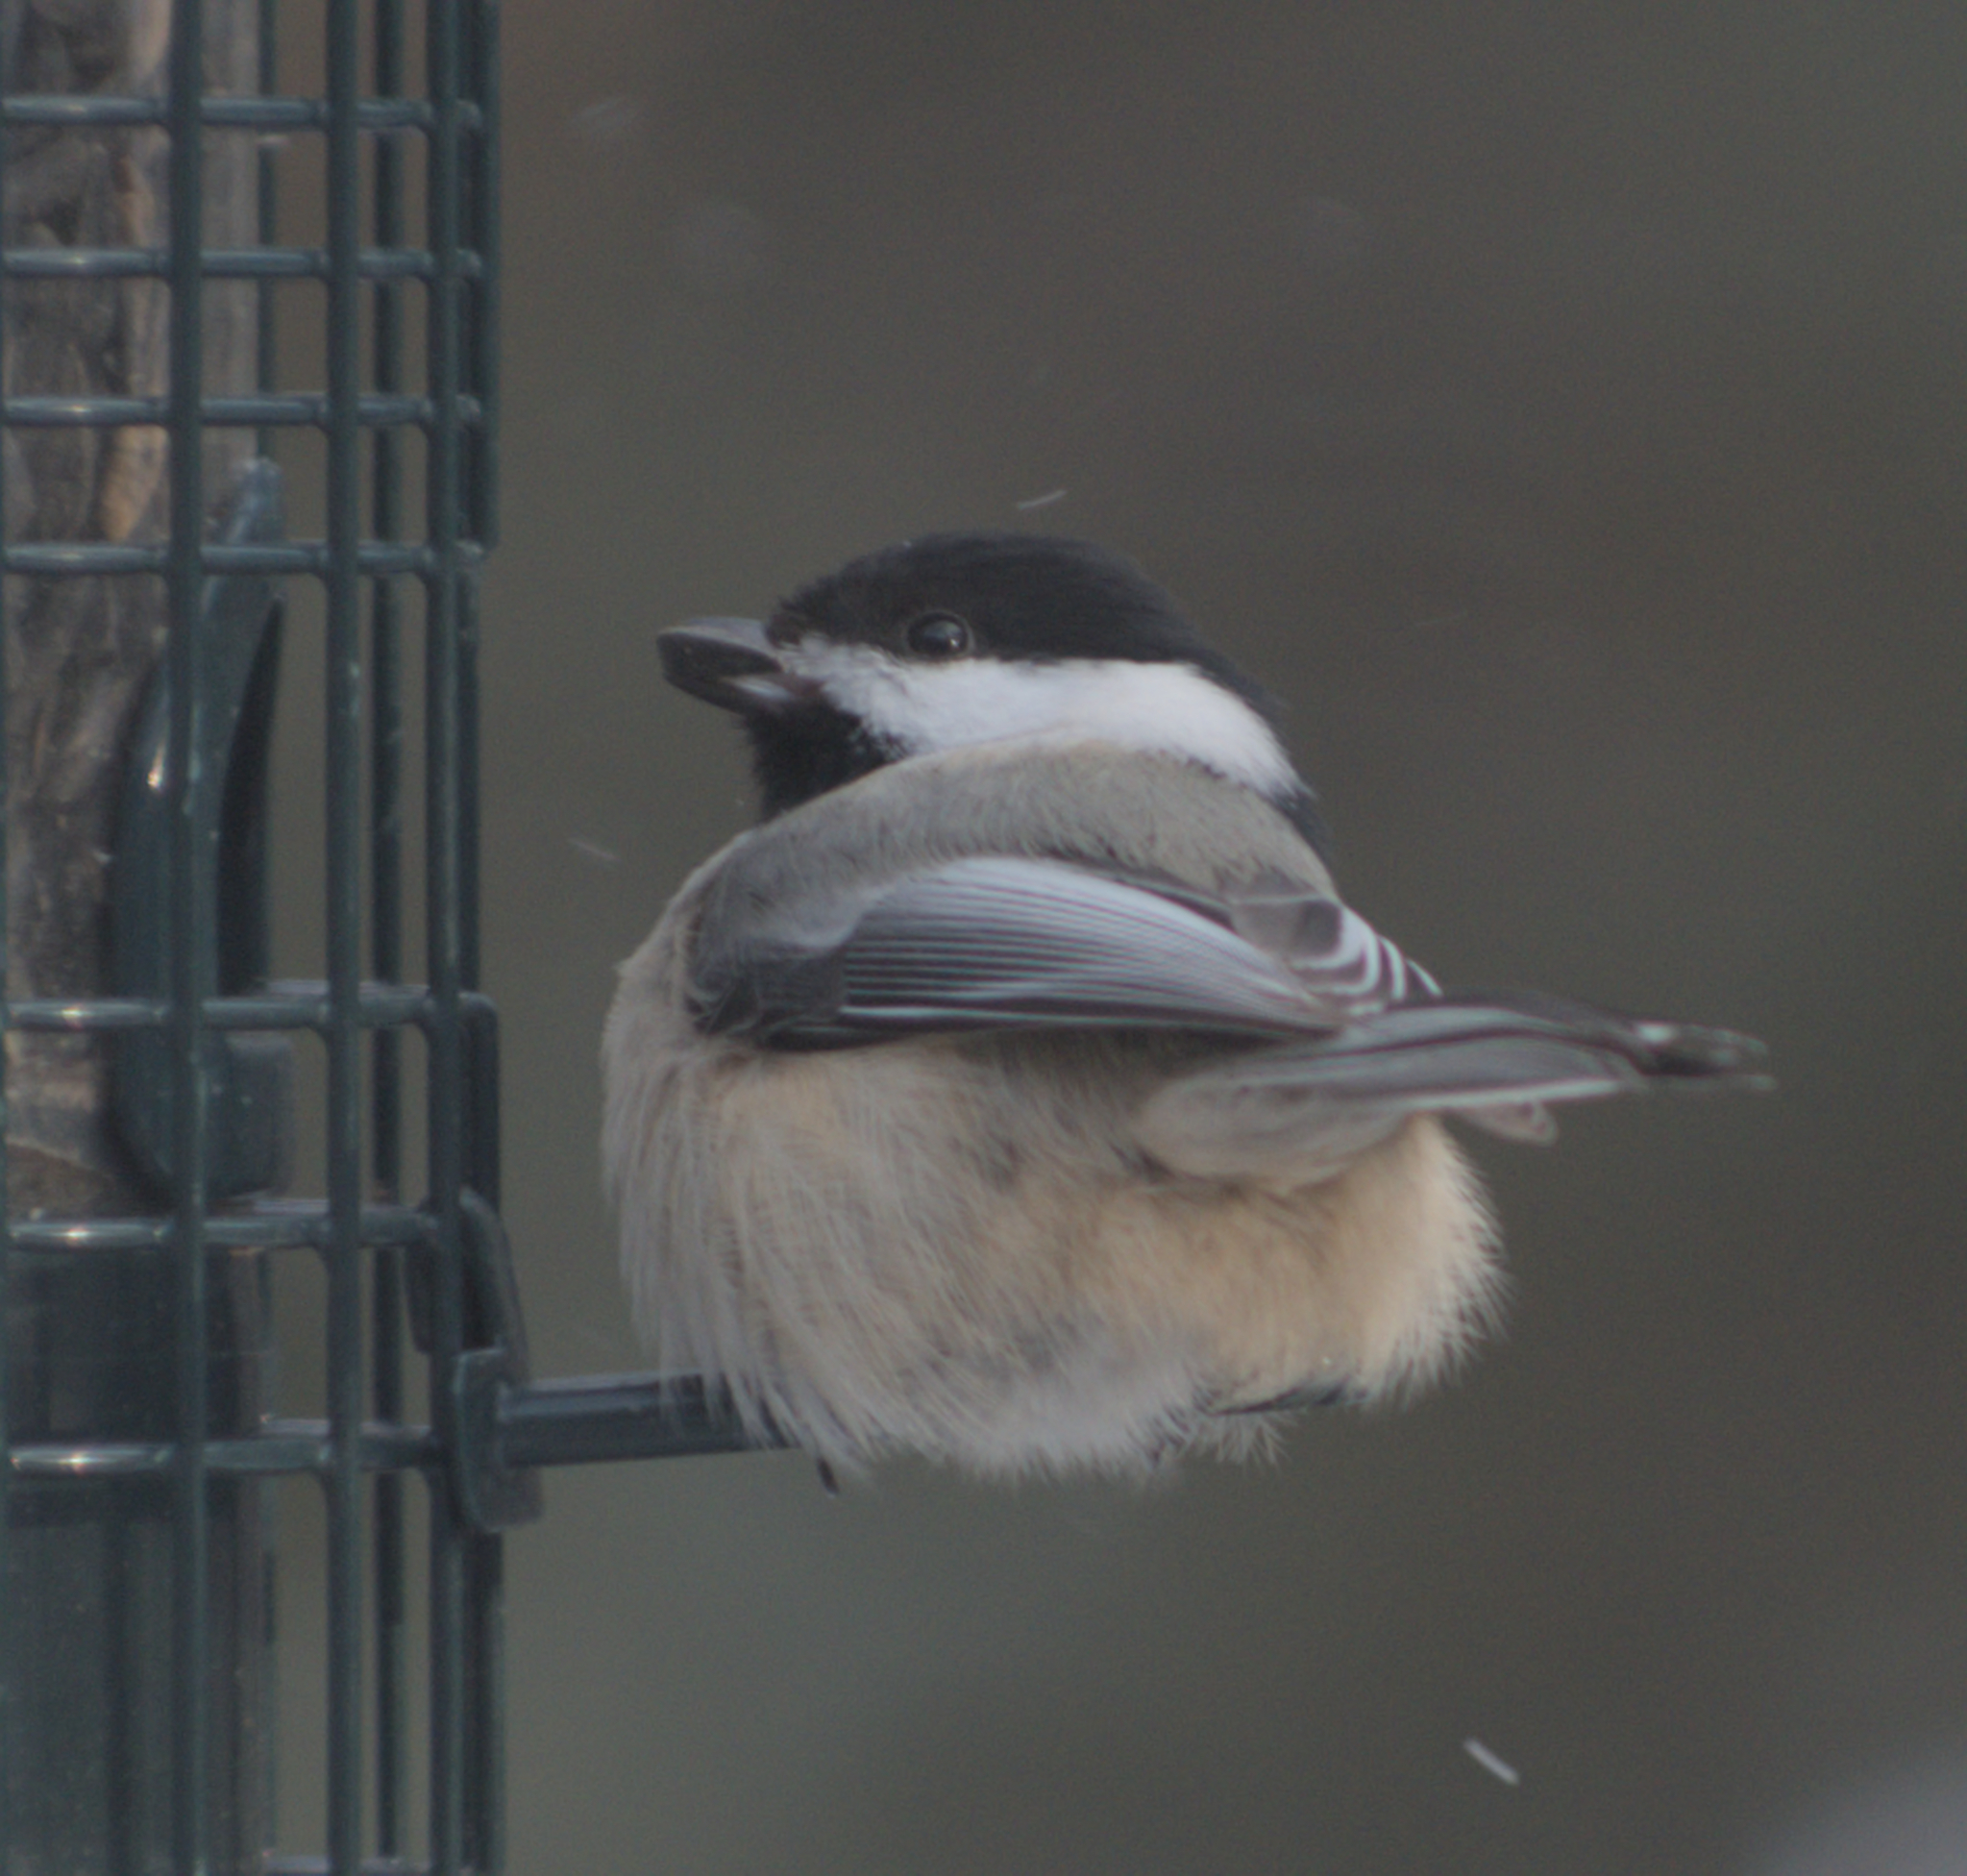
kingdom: Animalia
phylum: Chordata
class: Aves
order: Passeriformes
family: Paridae
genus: Poecile
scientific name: Poecile atricapillus
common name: Black-capped chickadee
